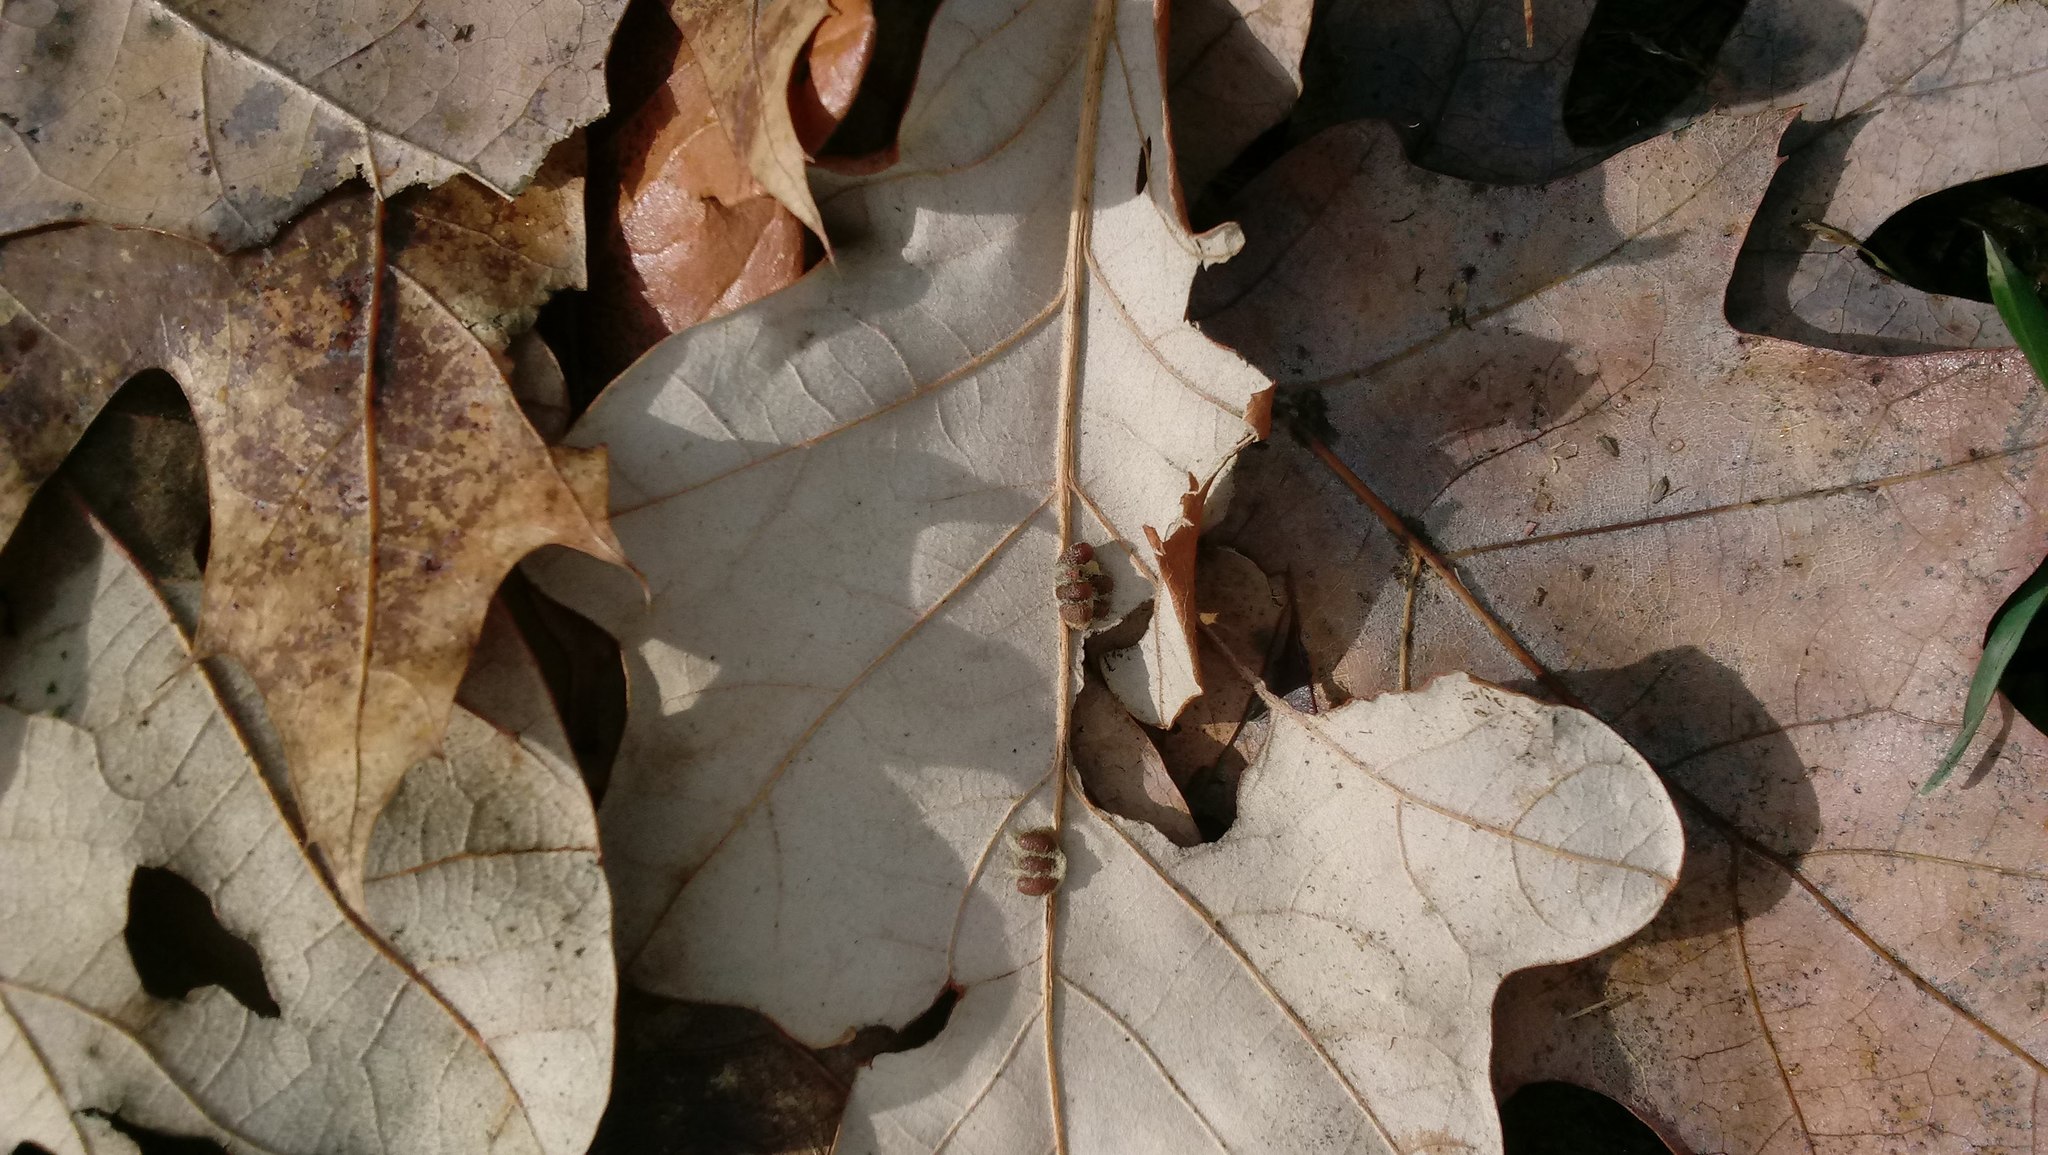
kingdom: Animalia
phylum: Arthropoda
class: Insecta
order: Hymenoptera
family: Cynipidae
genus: Andricus
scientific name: Andricus Druon ignotum
